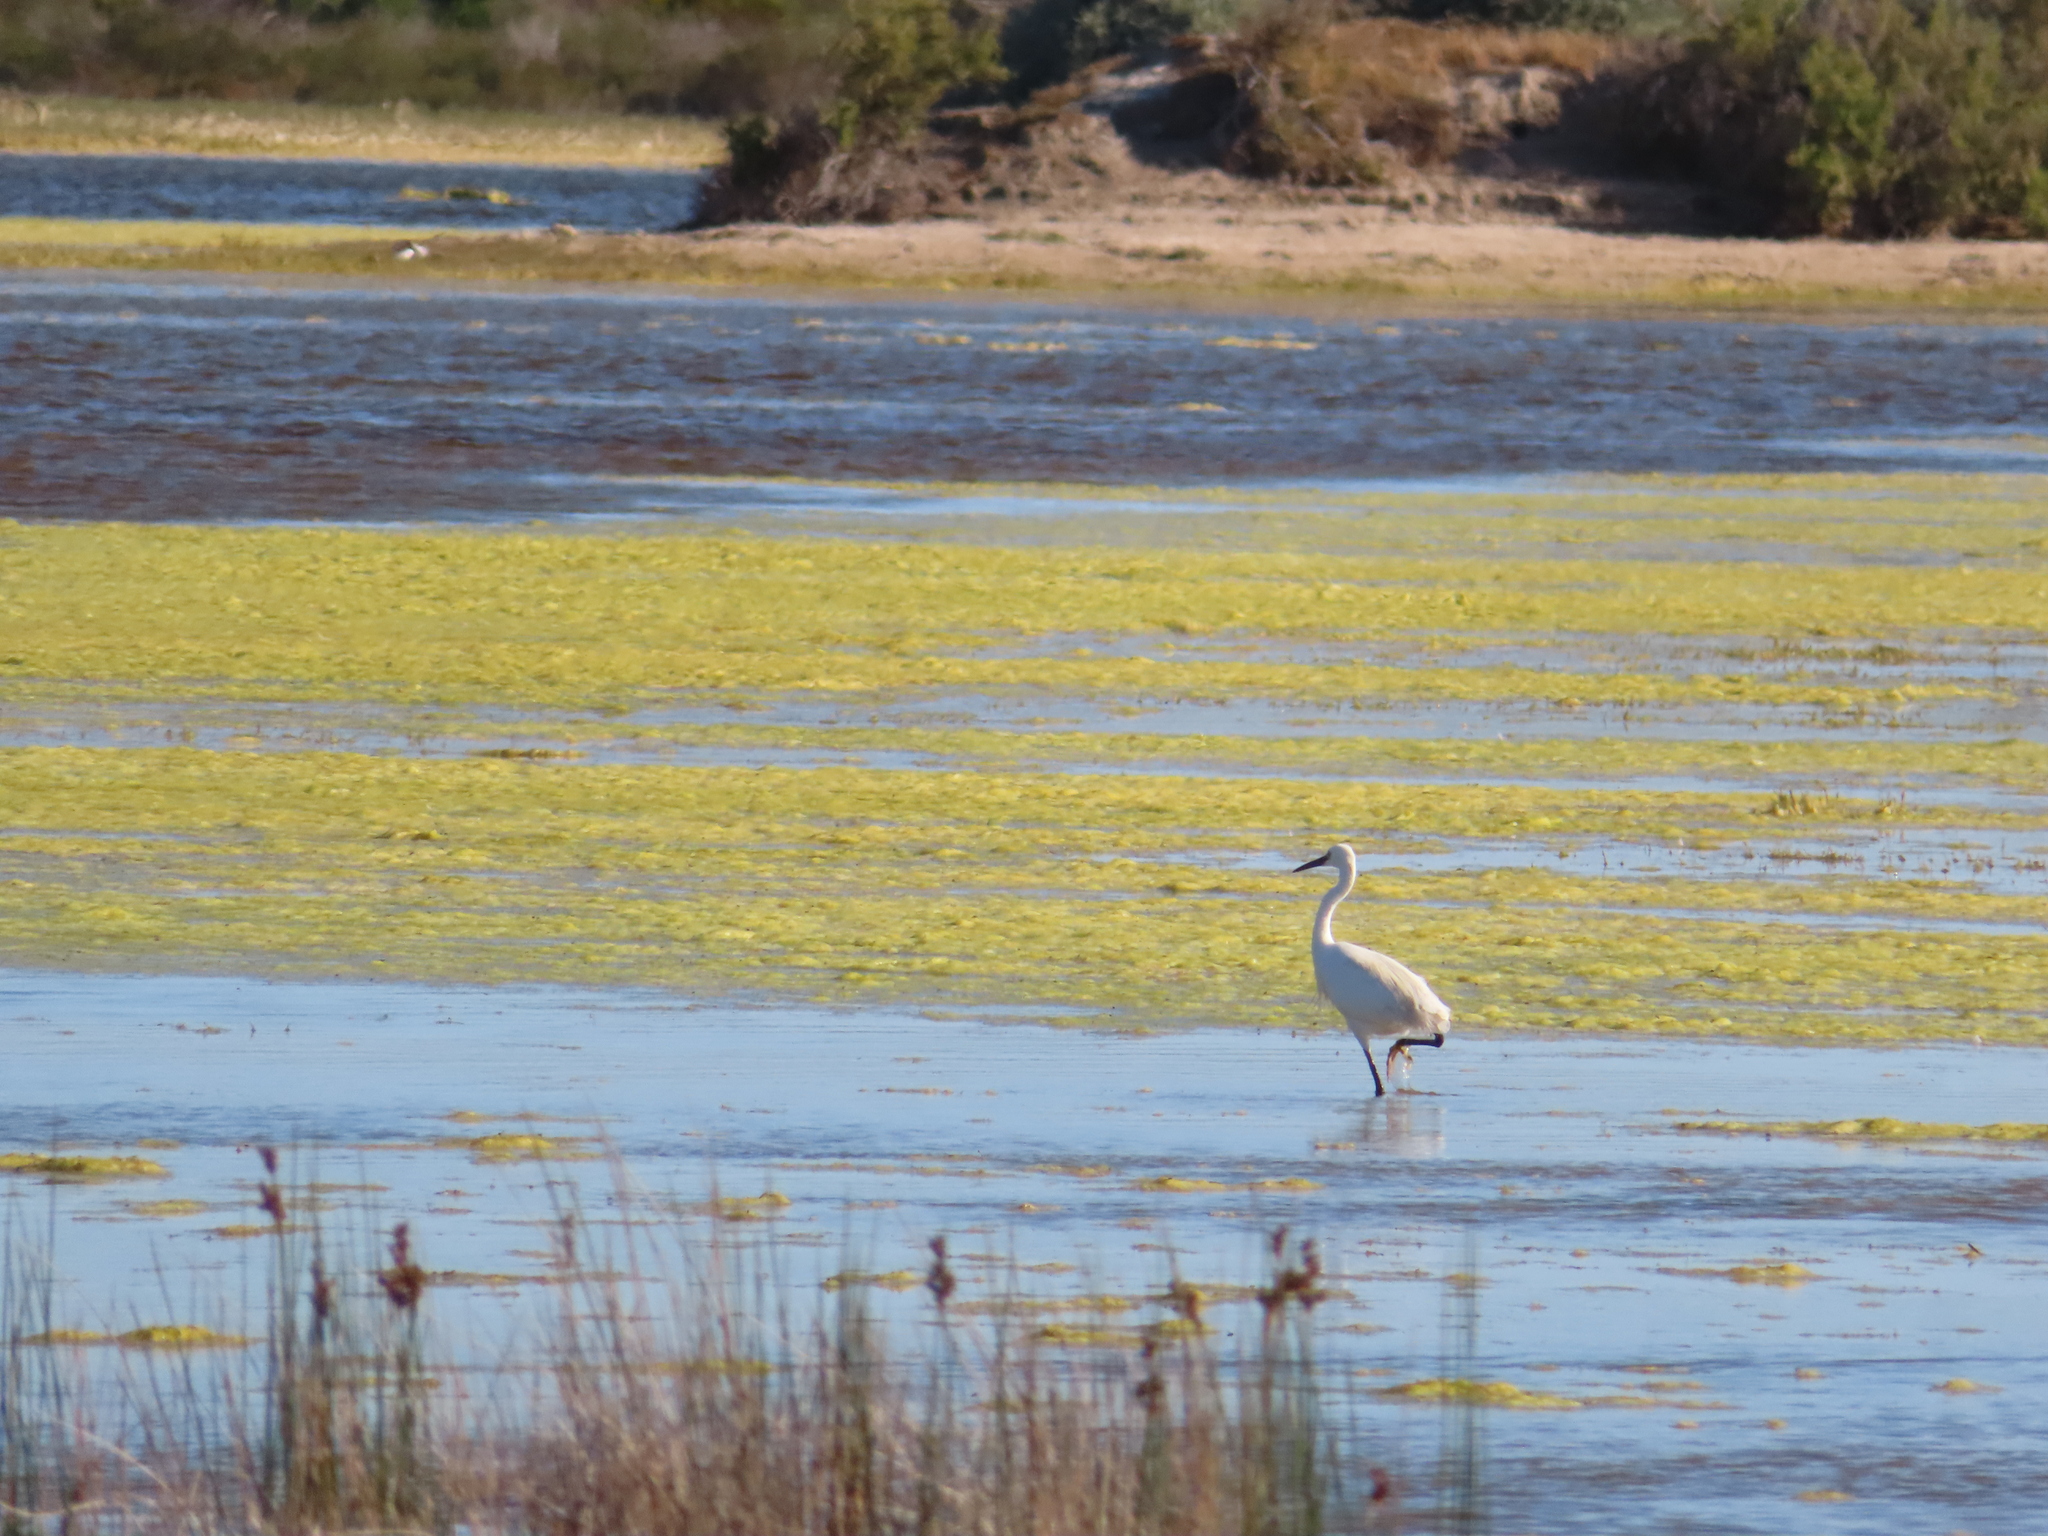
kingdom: Animalia
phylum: Chordata
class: Aves
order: Pelecaniformes
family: Ardeidae
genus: Egretta
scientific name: Egretta garzetta
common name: Little egret
